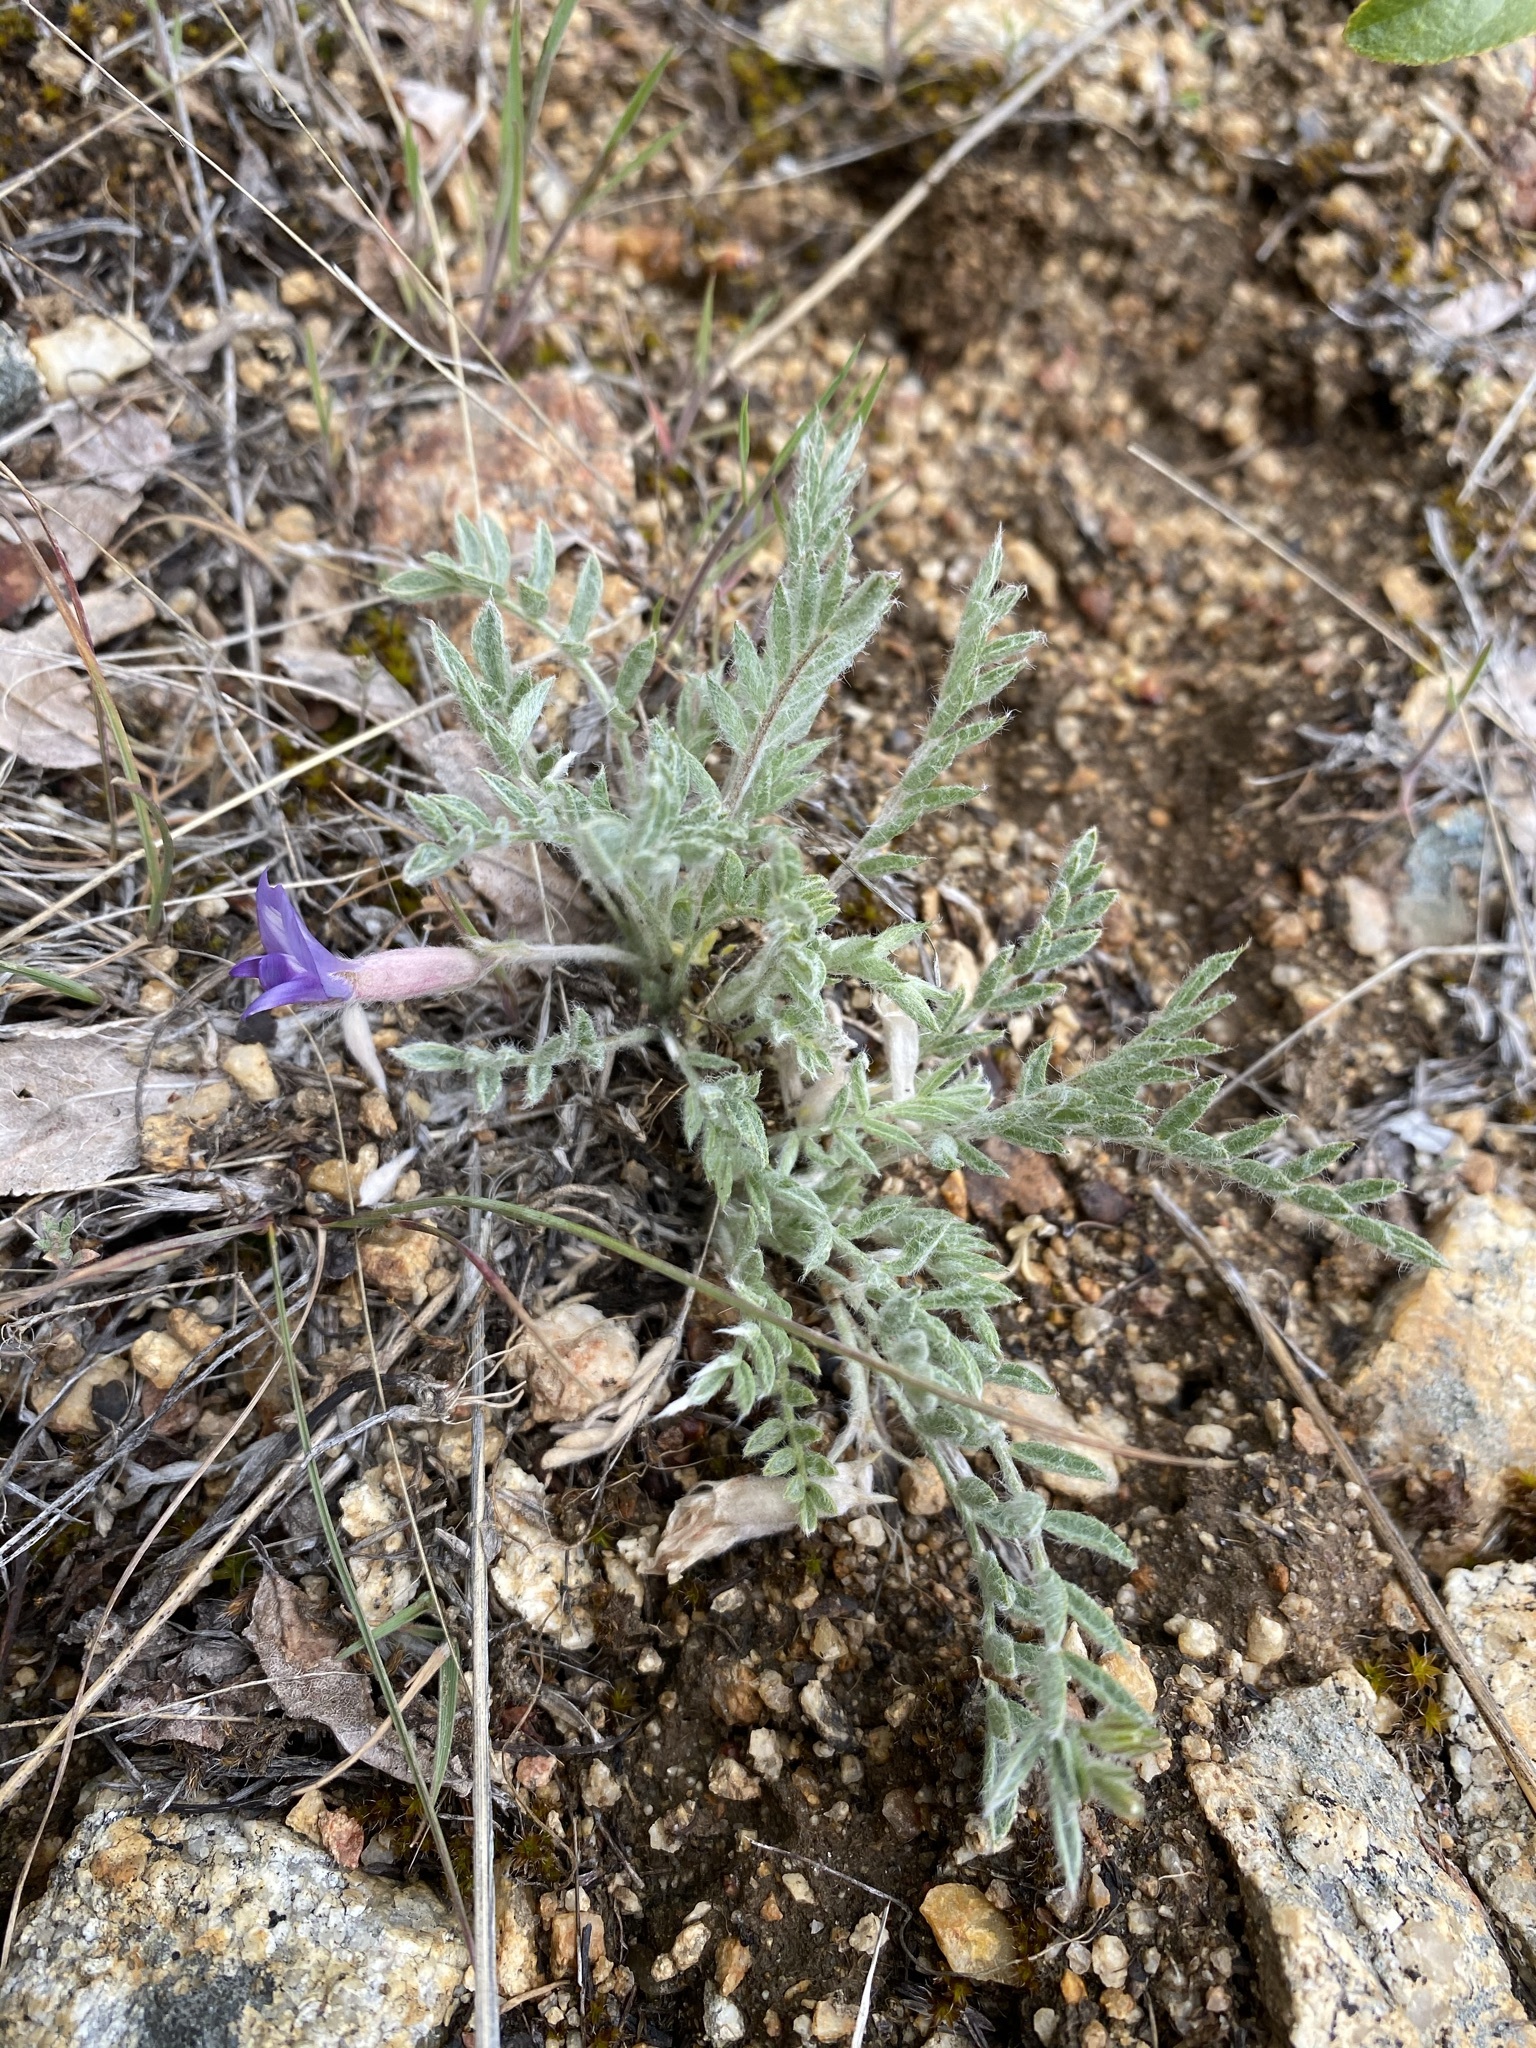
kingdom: Plantae
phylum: Tracheophyta
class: Magnoliopsida
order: Fabales
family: Fabaceae
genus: Astragalus
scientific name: Astragalus purshii
